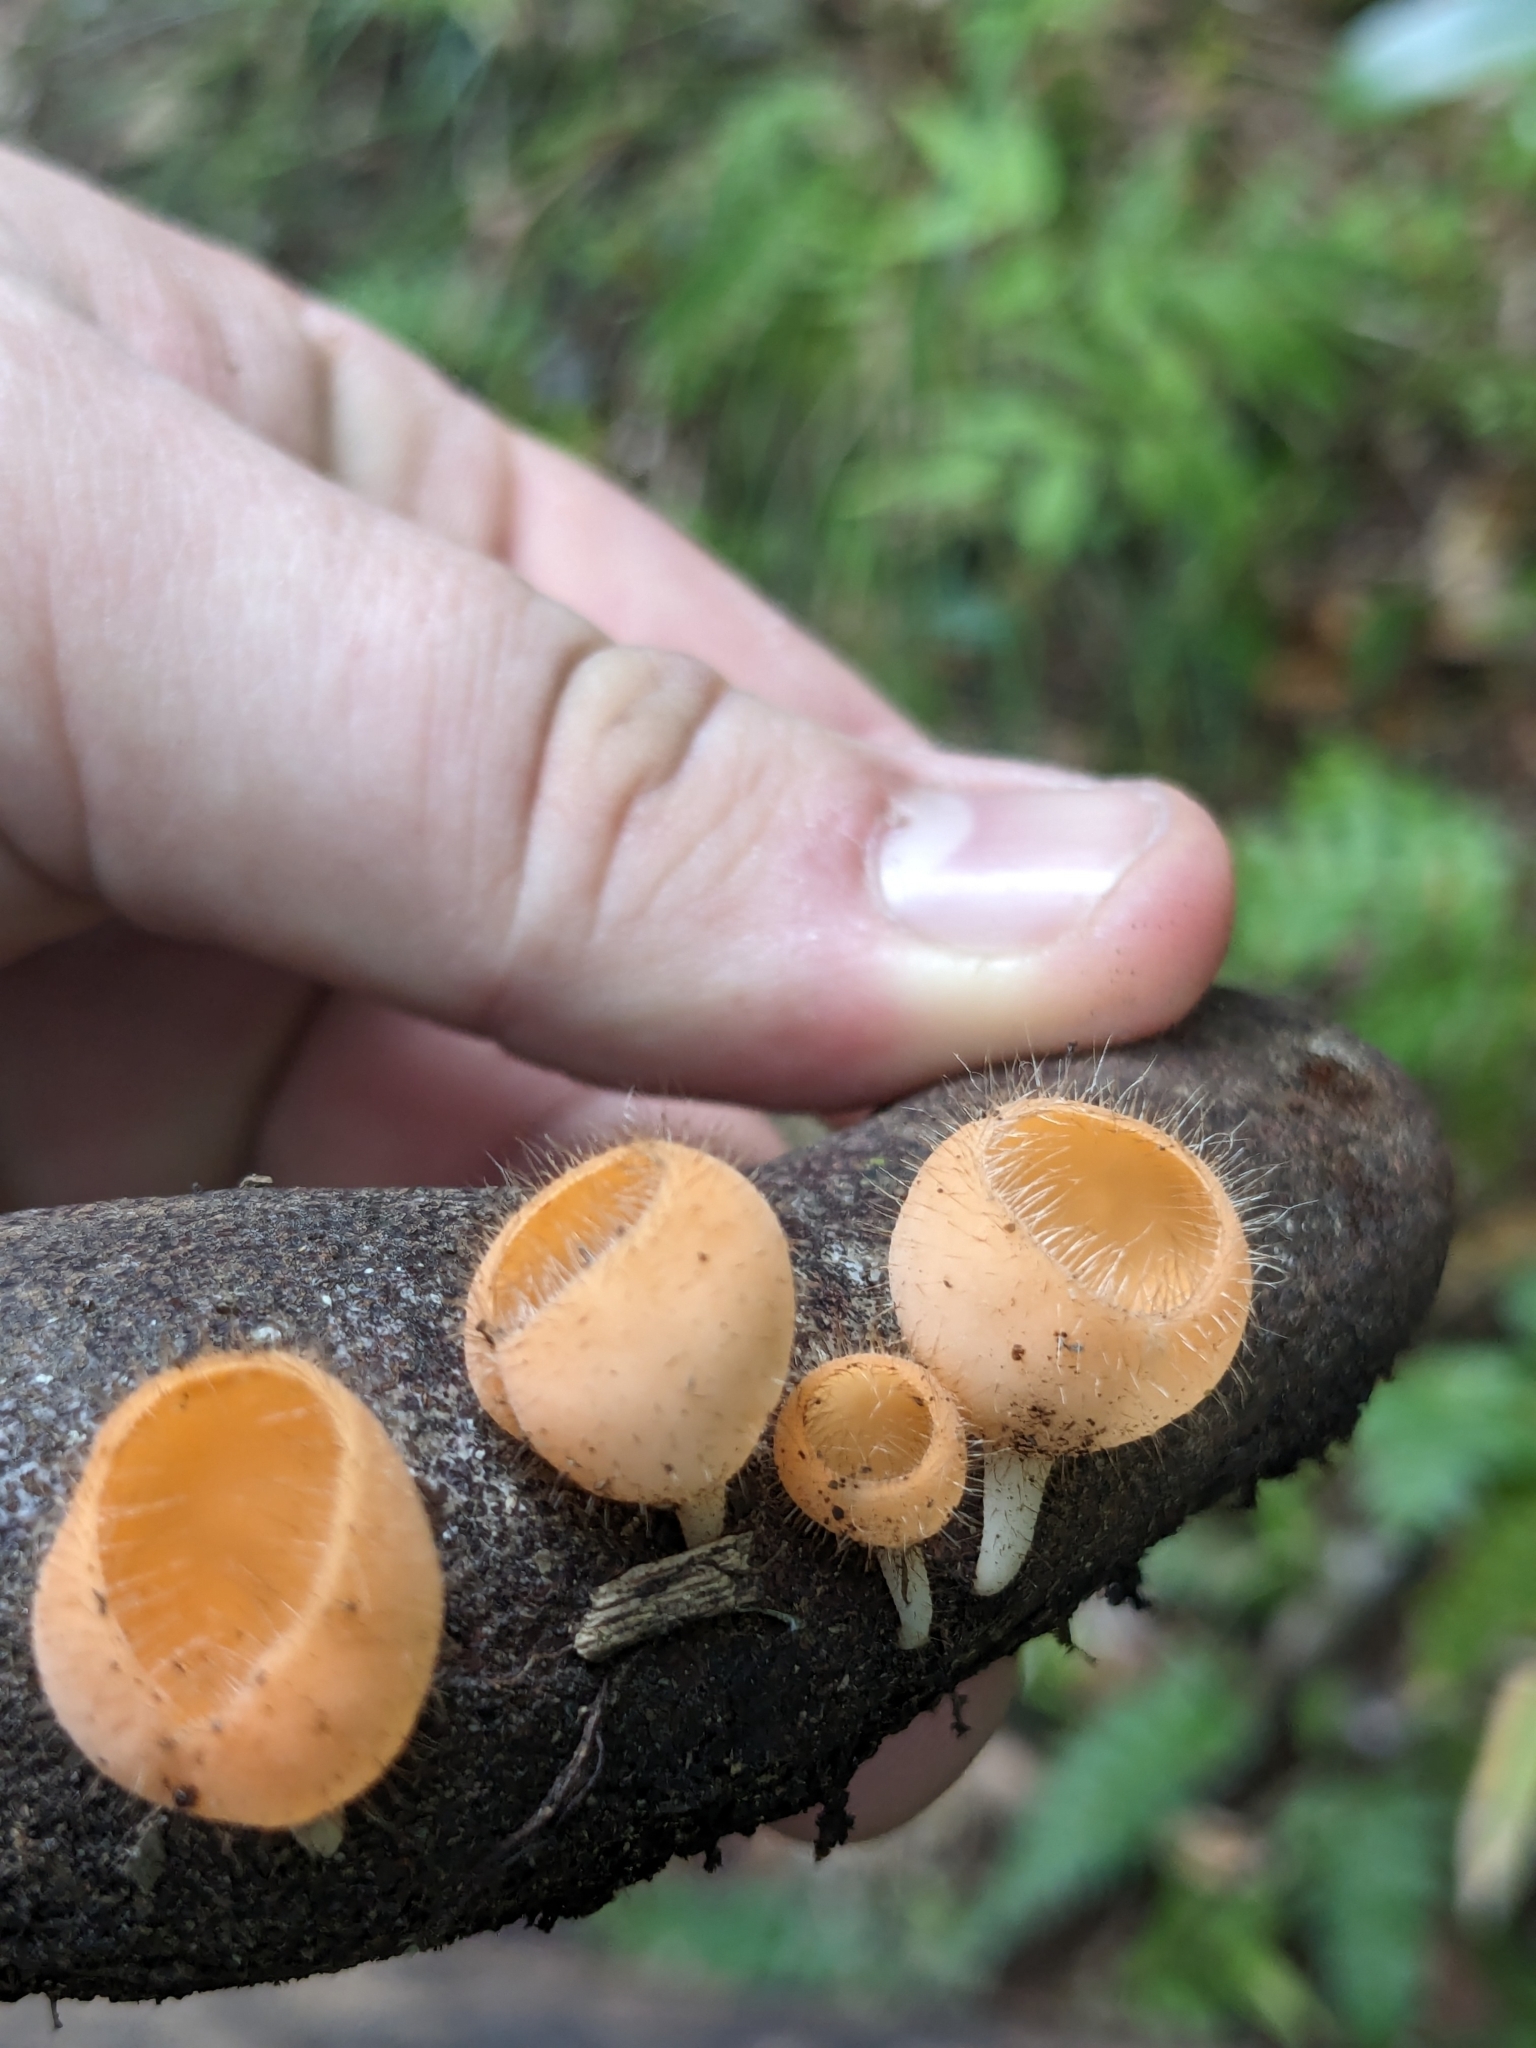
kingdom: Fungi
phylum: Ascomycota
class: Pezizomycetes
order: Pezizales
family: Sarcoscyphaceae
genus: Cookeina
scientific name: Cookeina tricholoma
